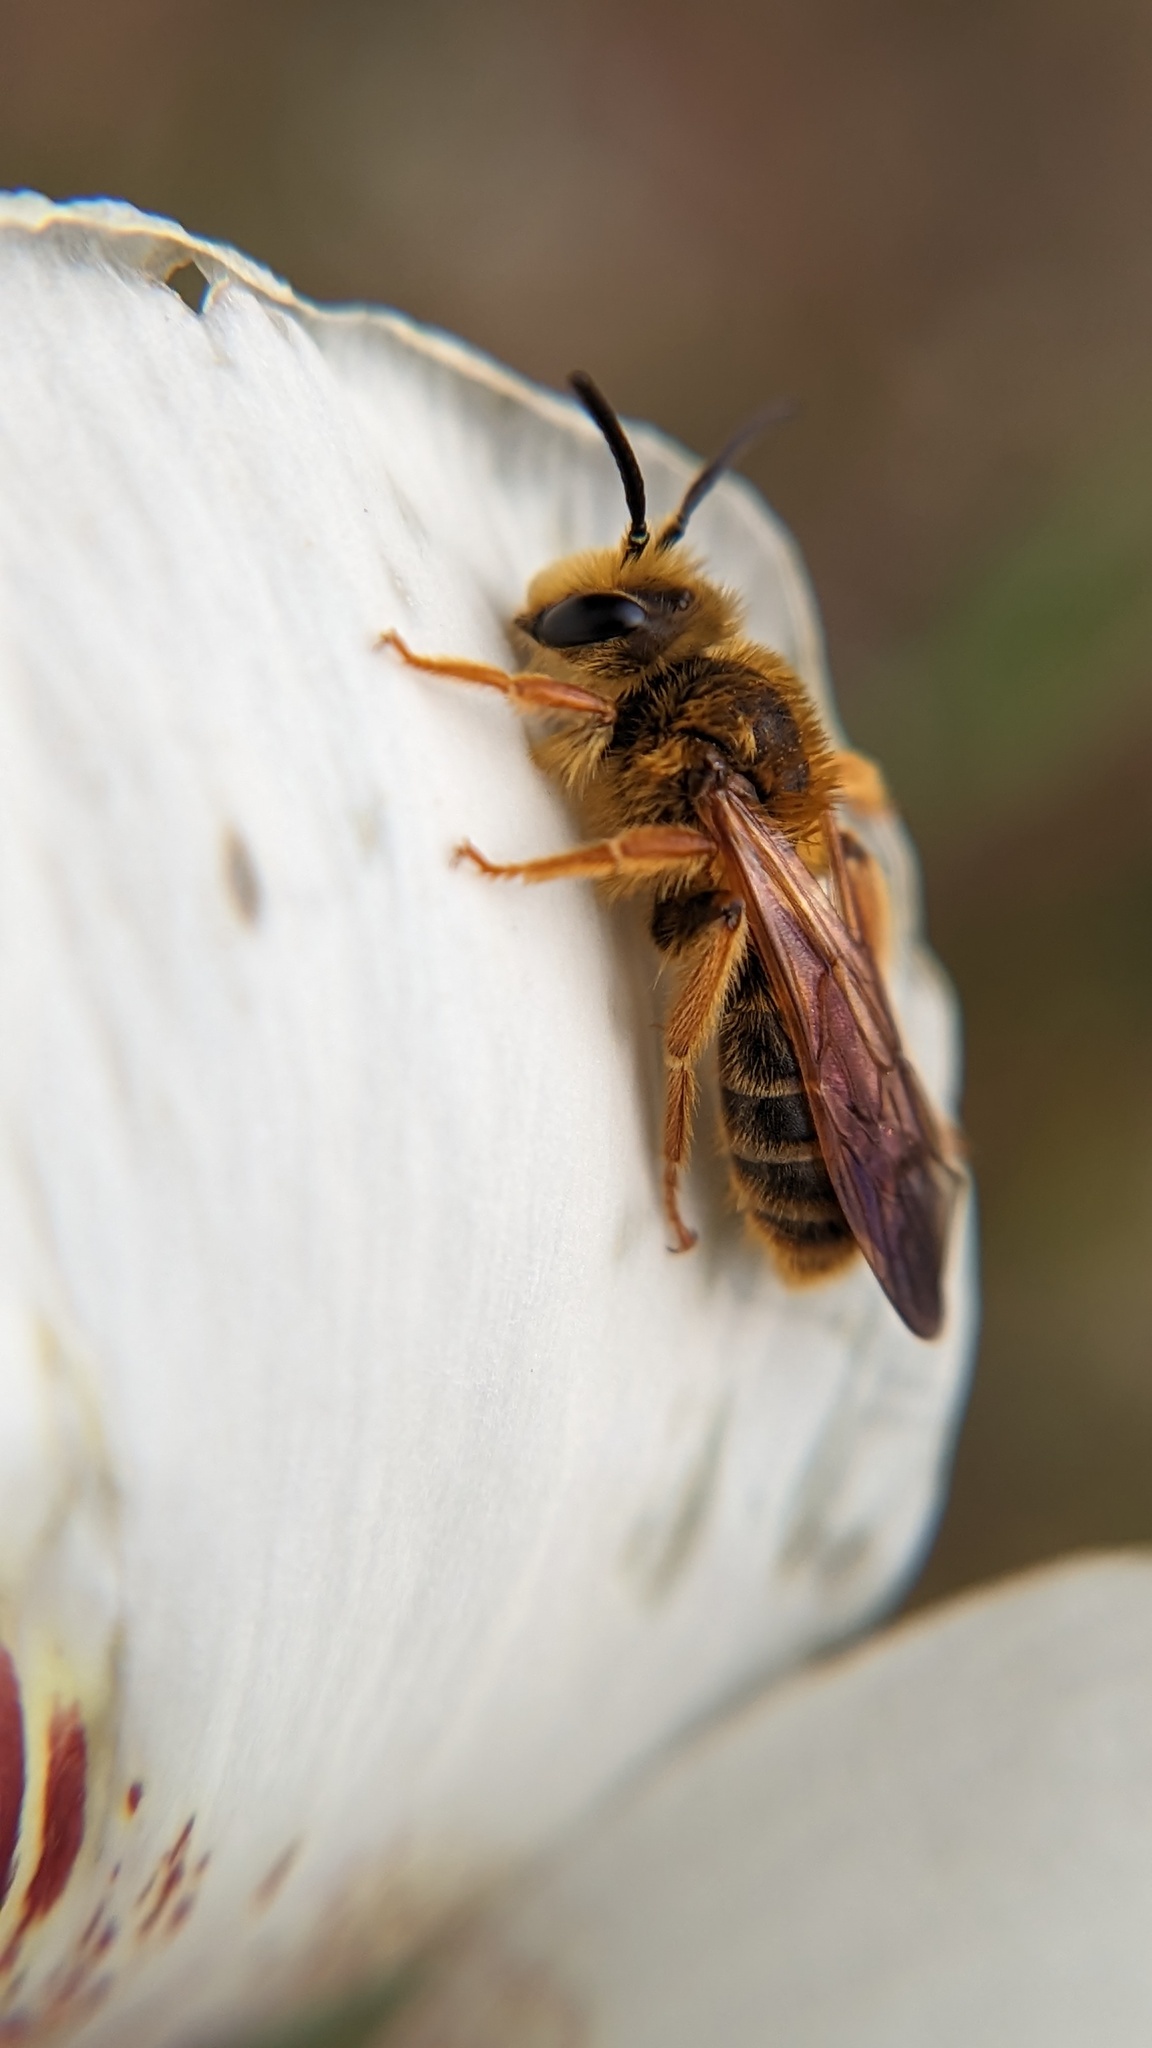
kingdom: Animalia
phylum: Arthropoda
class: Insecta
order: Hymenoptera
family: Andrenidae
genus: Andrena
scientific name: Andrena prunorum
